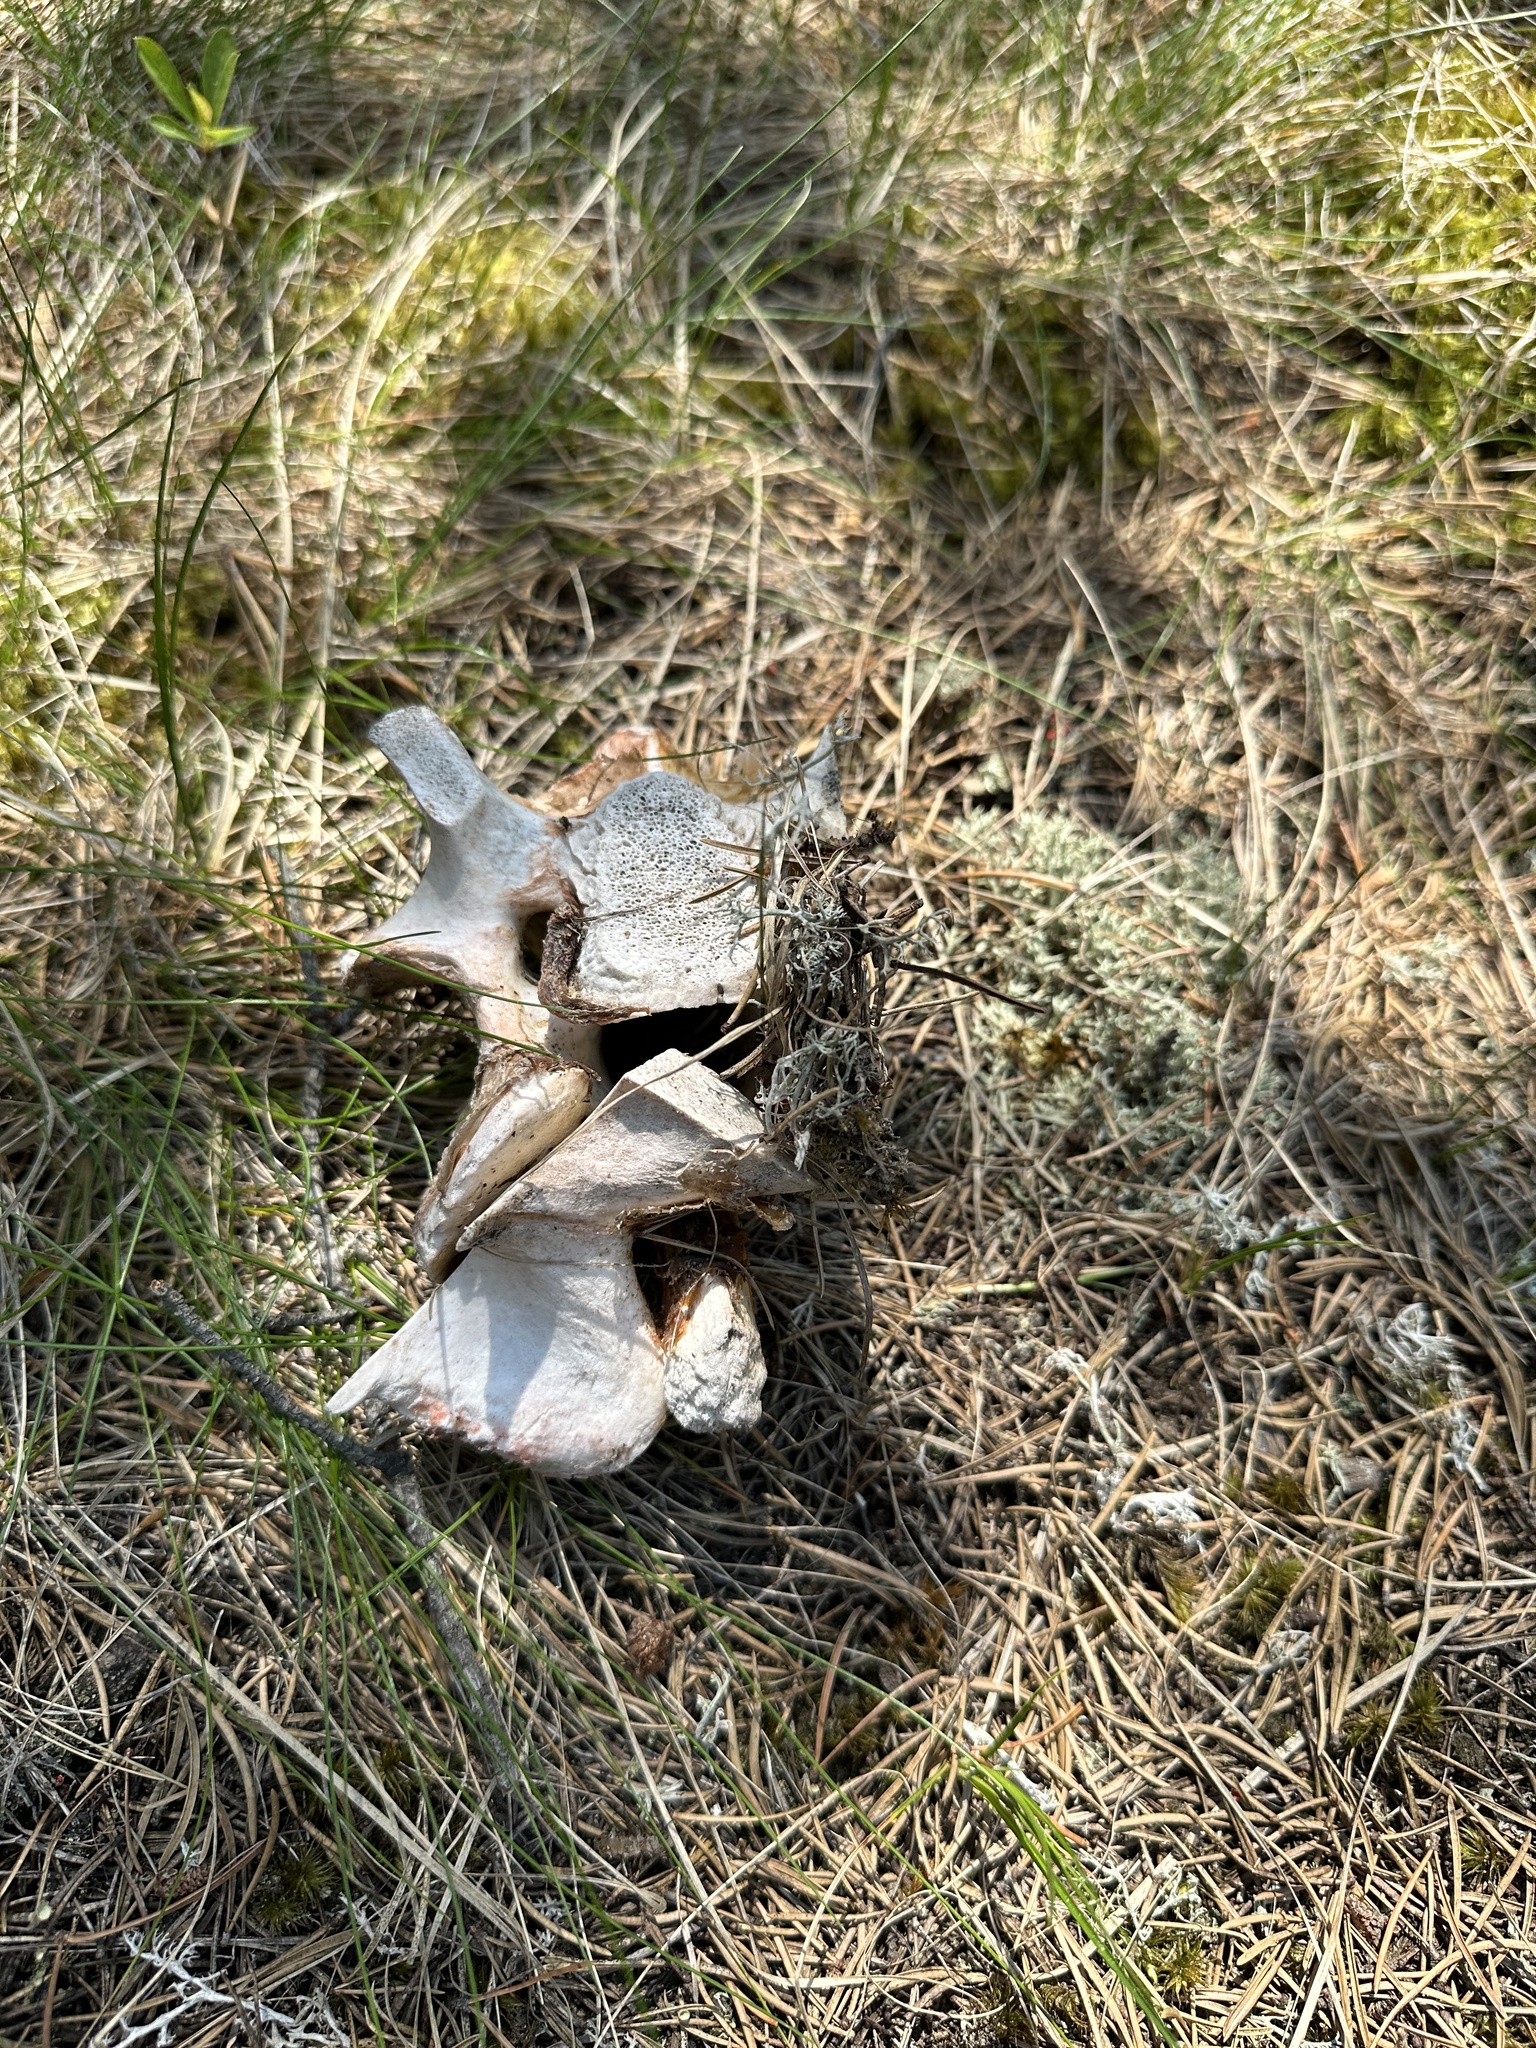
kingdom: Animalia
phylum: Chordata
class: Mammalia
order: Artiodactyla
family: Cervidae
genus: Odocoileus
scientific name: Odocoileus virginianus
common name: White-tailed deer
